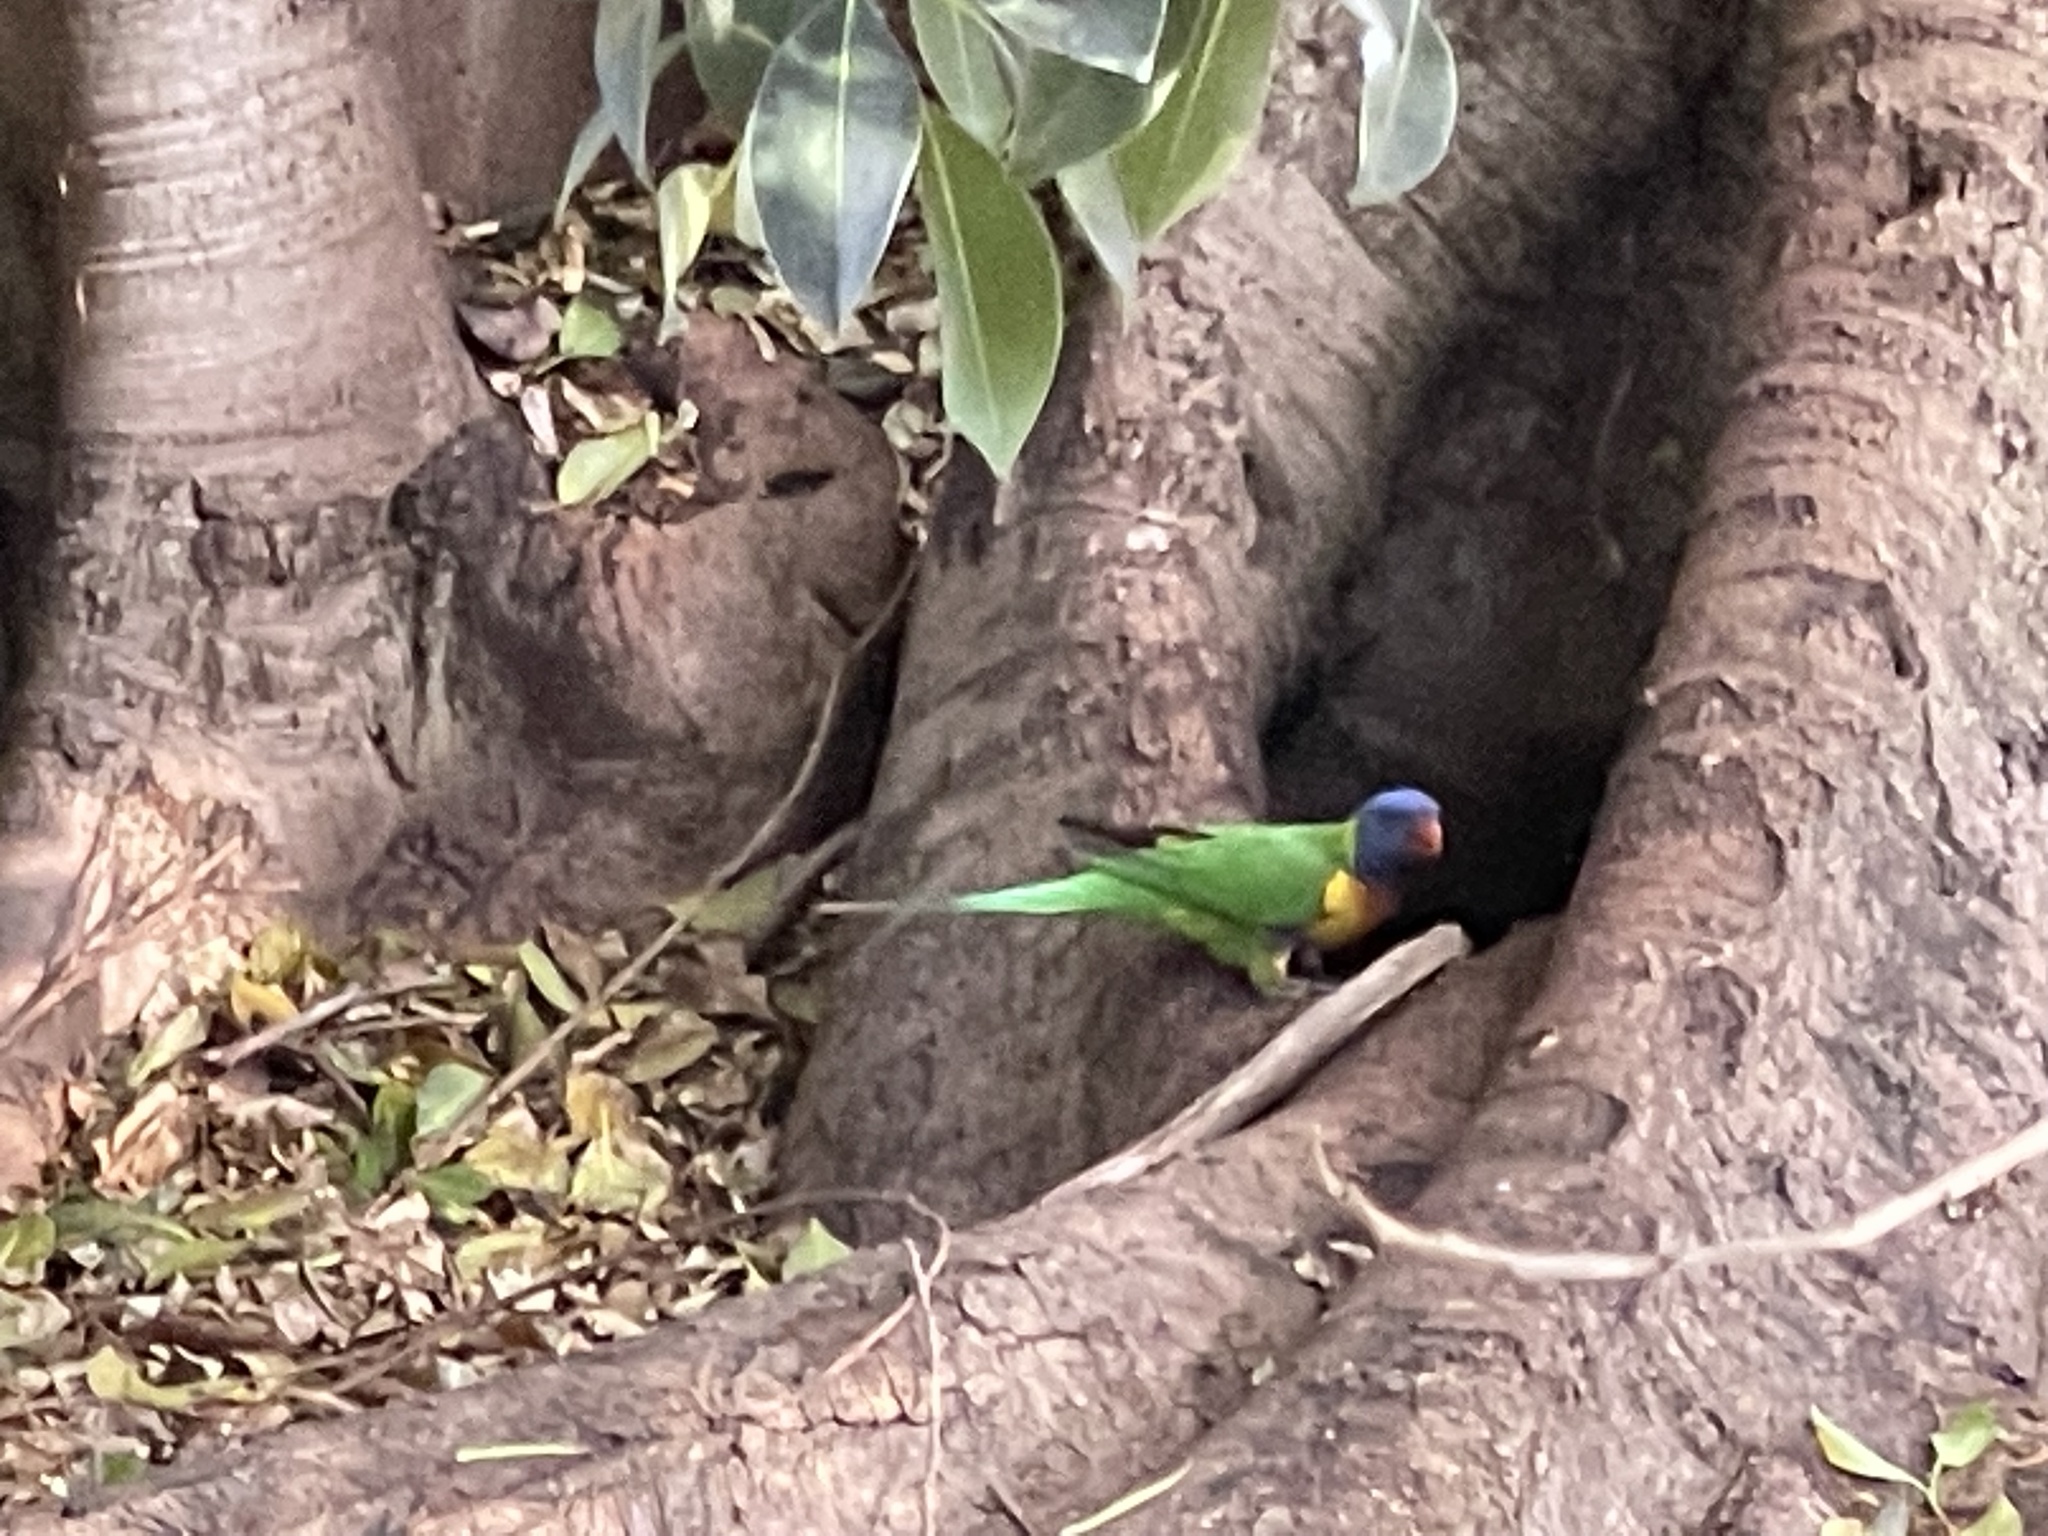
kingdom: Animalia
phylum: Chordata
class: Aves
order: Psittaciformes
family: Psittacidae
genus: Trichoglossus
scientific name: Trichoglossus haematodus
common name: Coconut lorikeet
